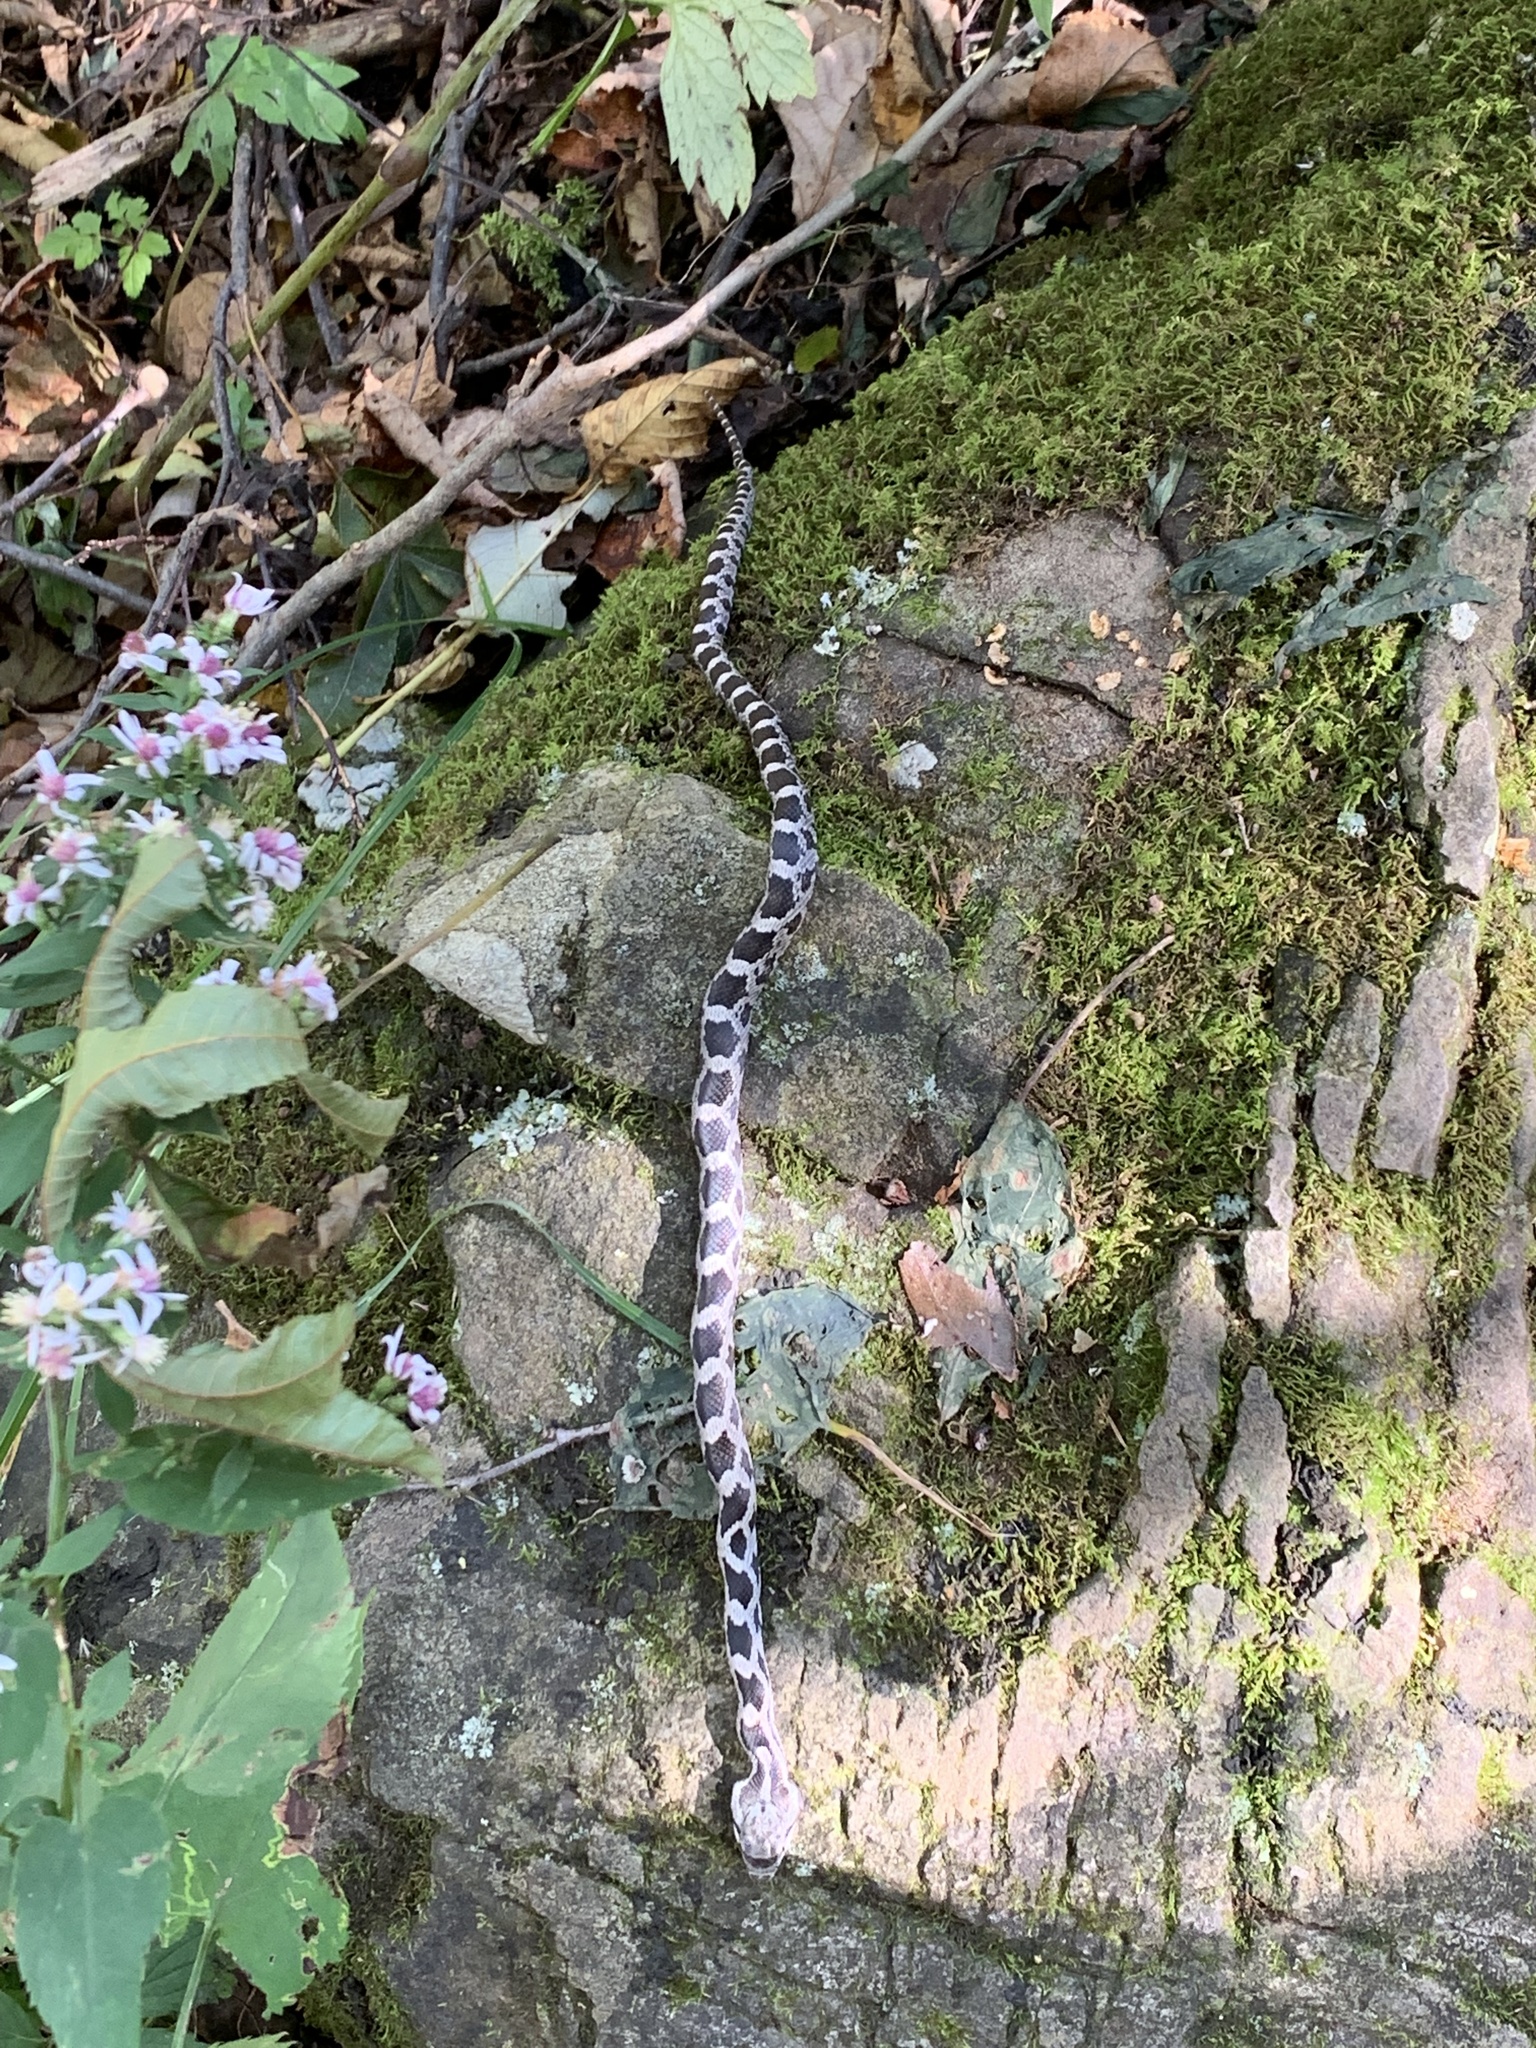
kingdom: Animalia
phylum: Chordata
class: Squamata
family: Colubridae
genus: Pantherophis
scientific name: Pantherophis
